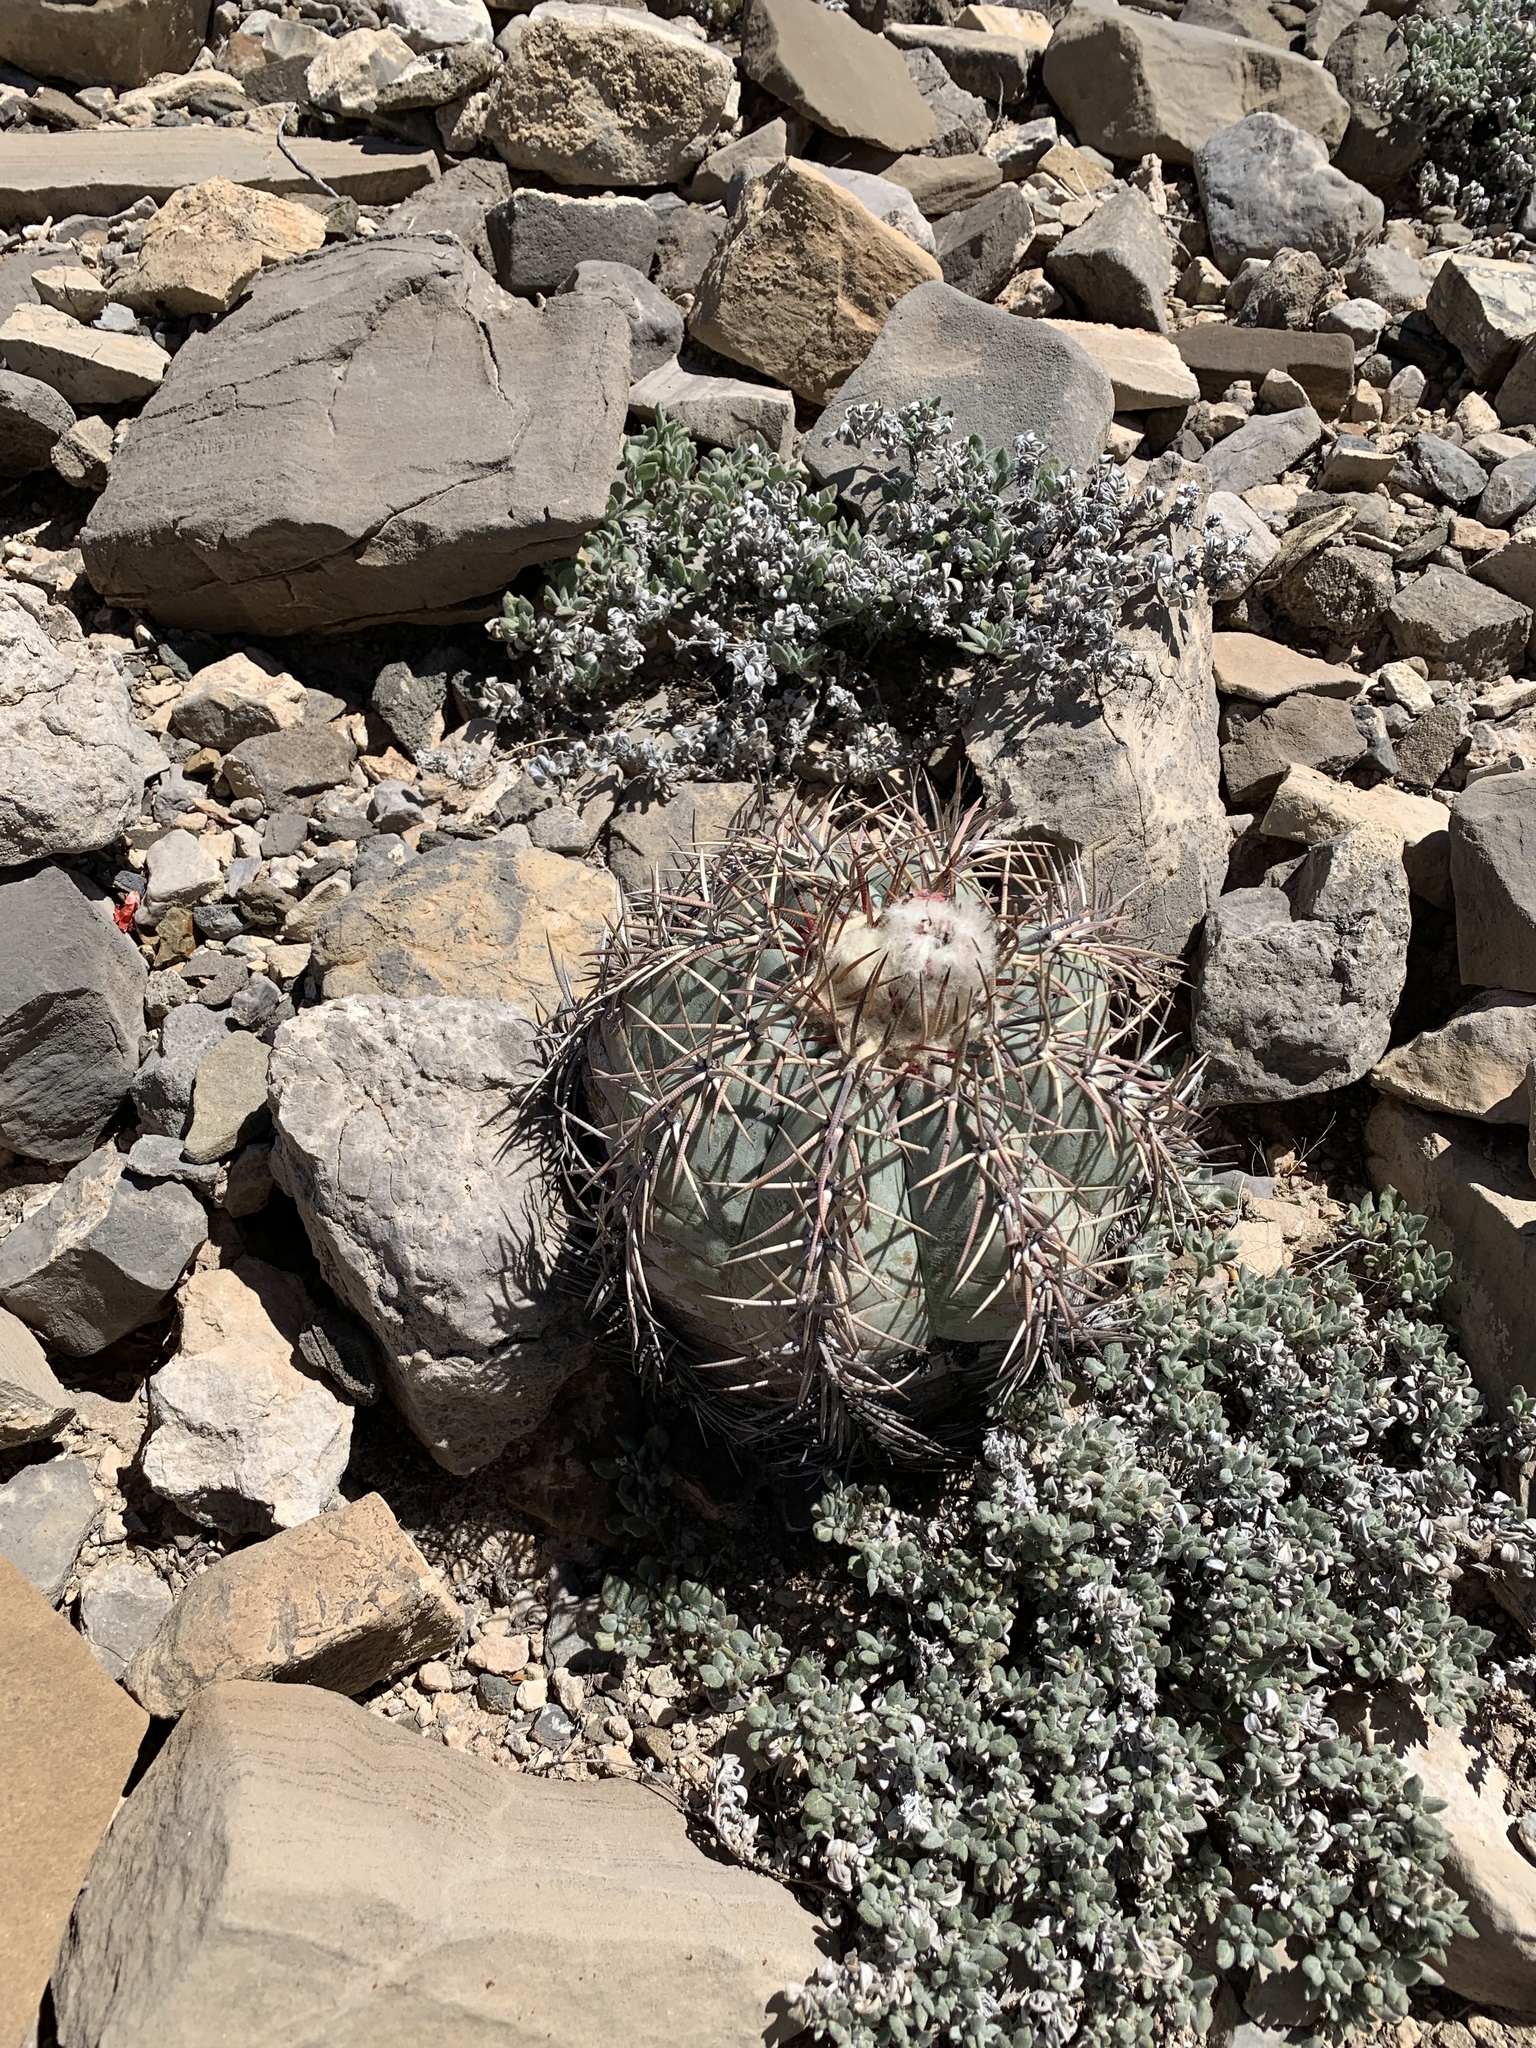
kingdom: Plantae
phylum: Tracheophyta
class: Magnoliopsida
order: Caryophyllales
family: Cactaceae
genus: Echinocactus
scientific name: Echinocactus horizonthalonius
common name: Devilshead
